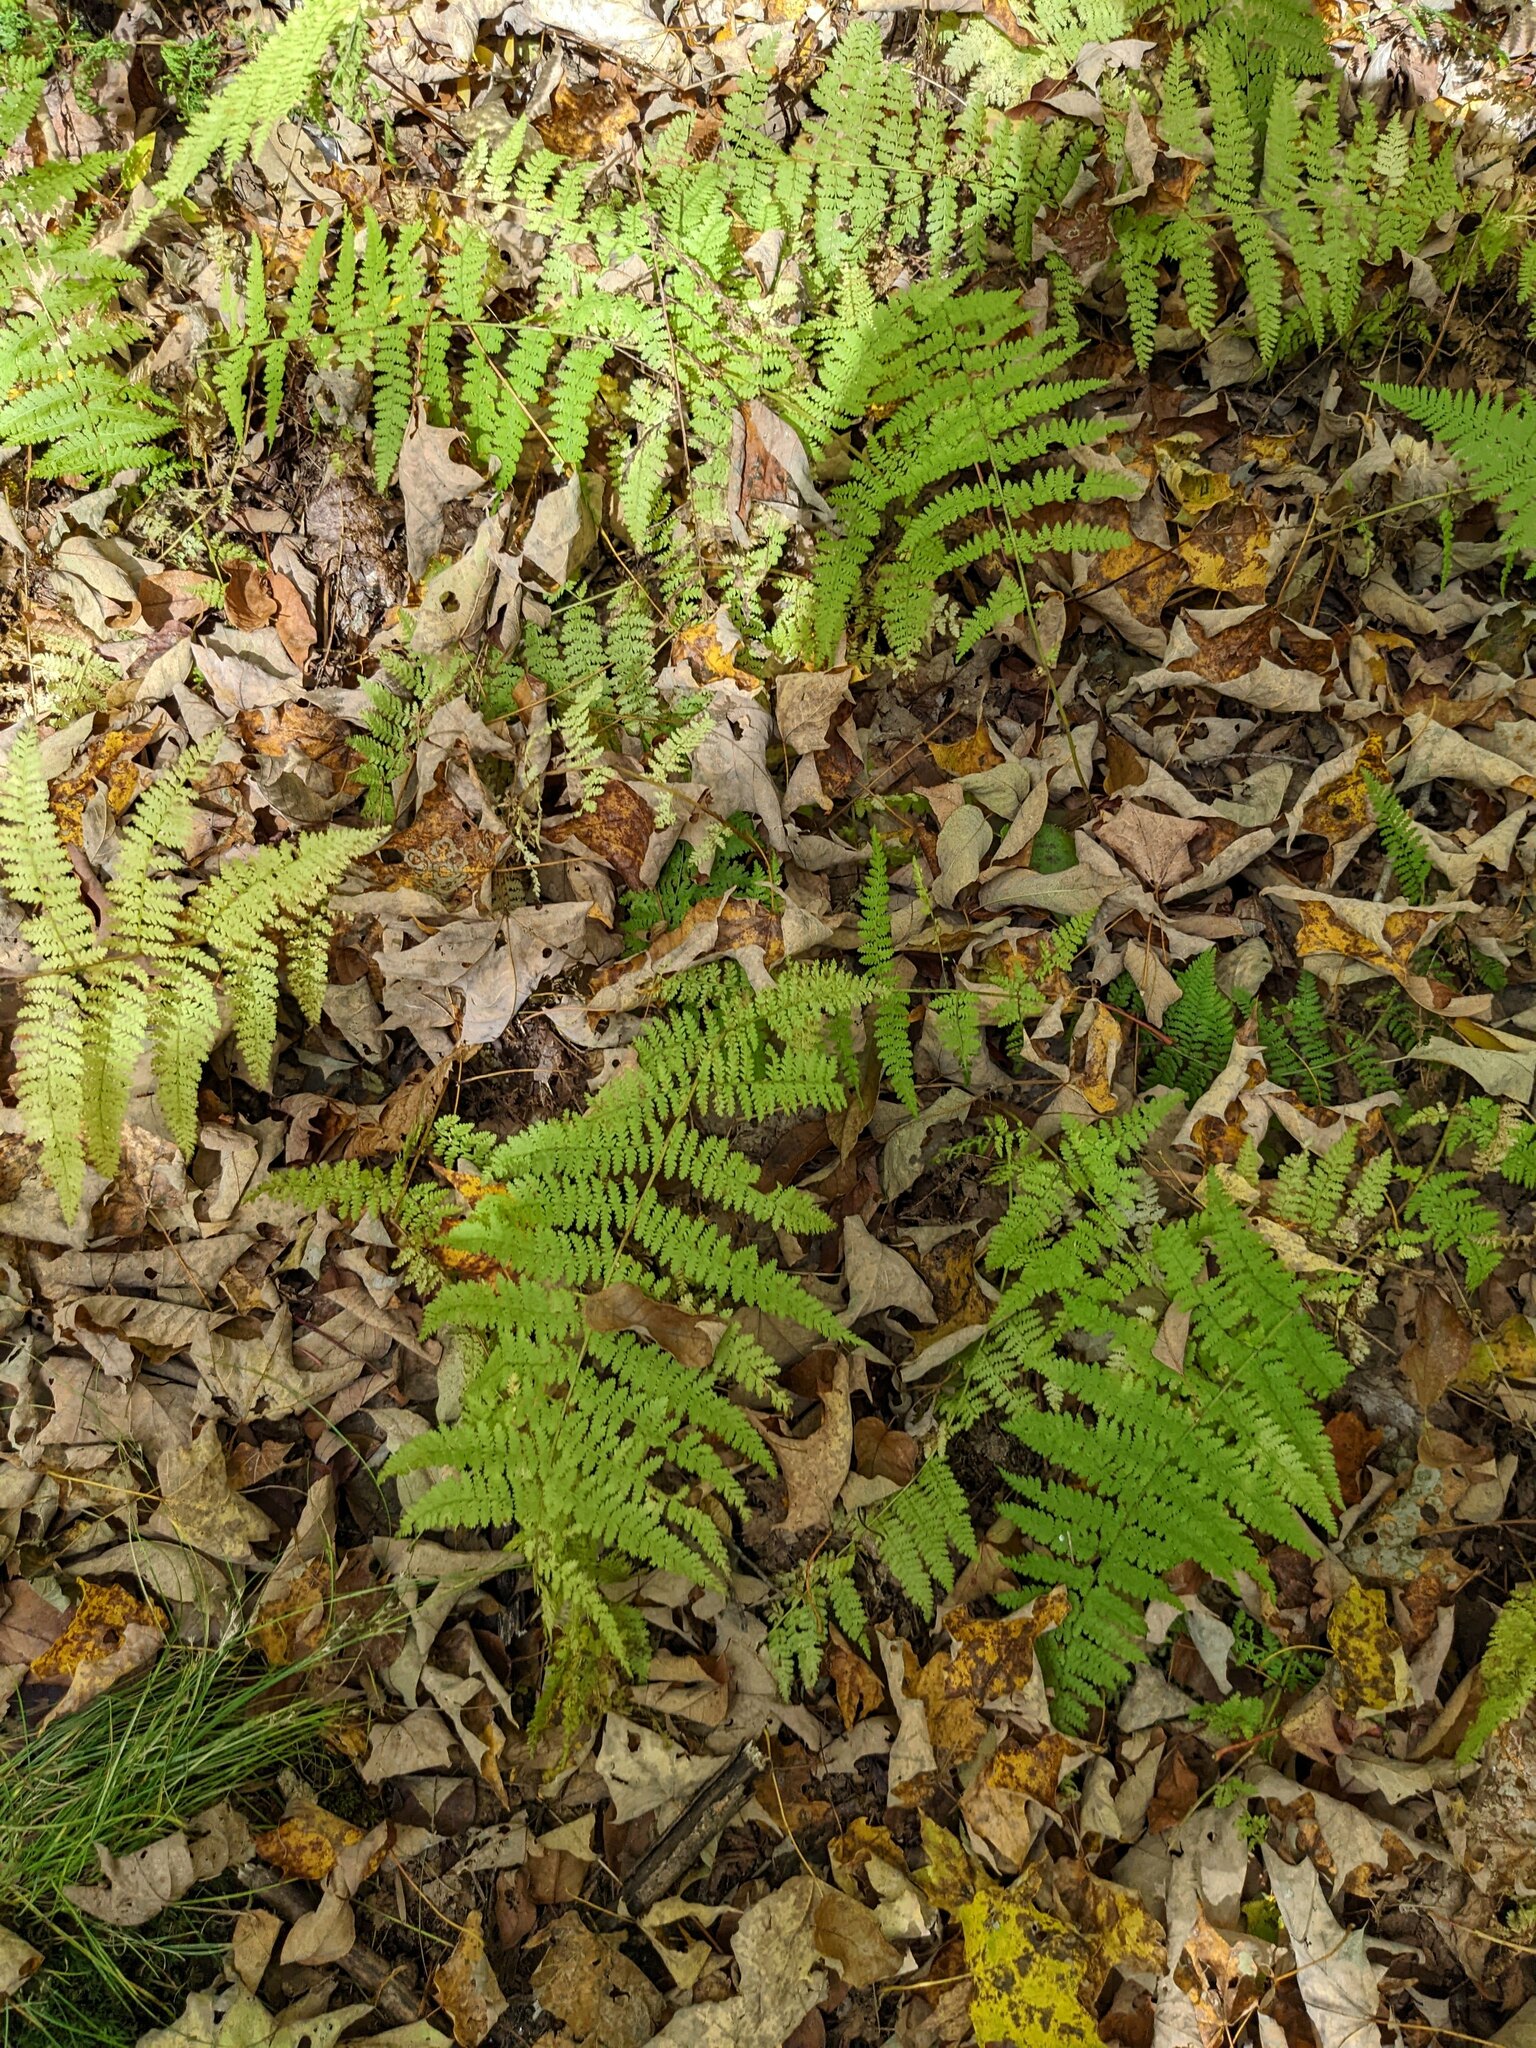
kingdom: Plantae
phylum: Tracheophyta
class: Polypodiopsida
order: Polypodiales
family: Dennstaedtiaceae
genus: Sitobolium
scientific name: Sitobolium punctilobum
